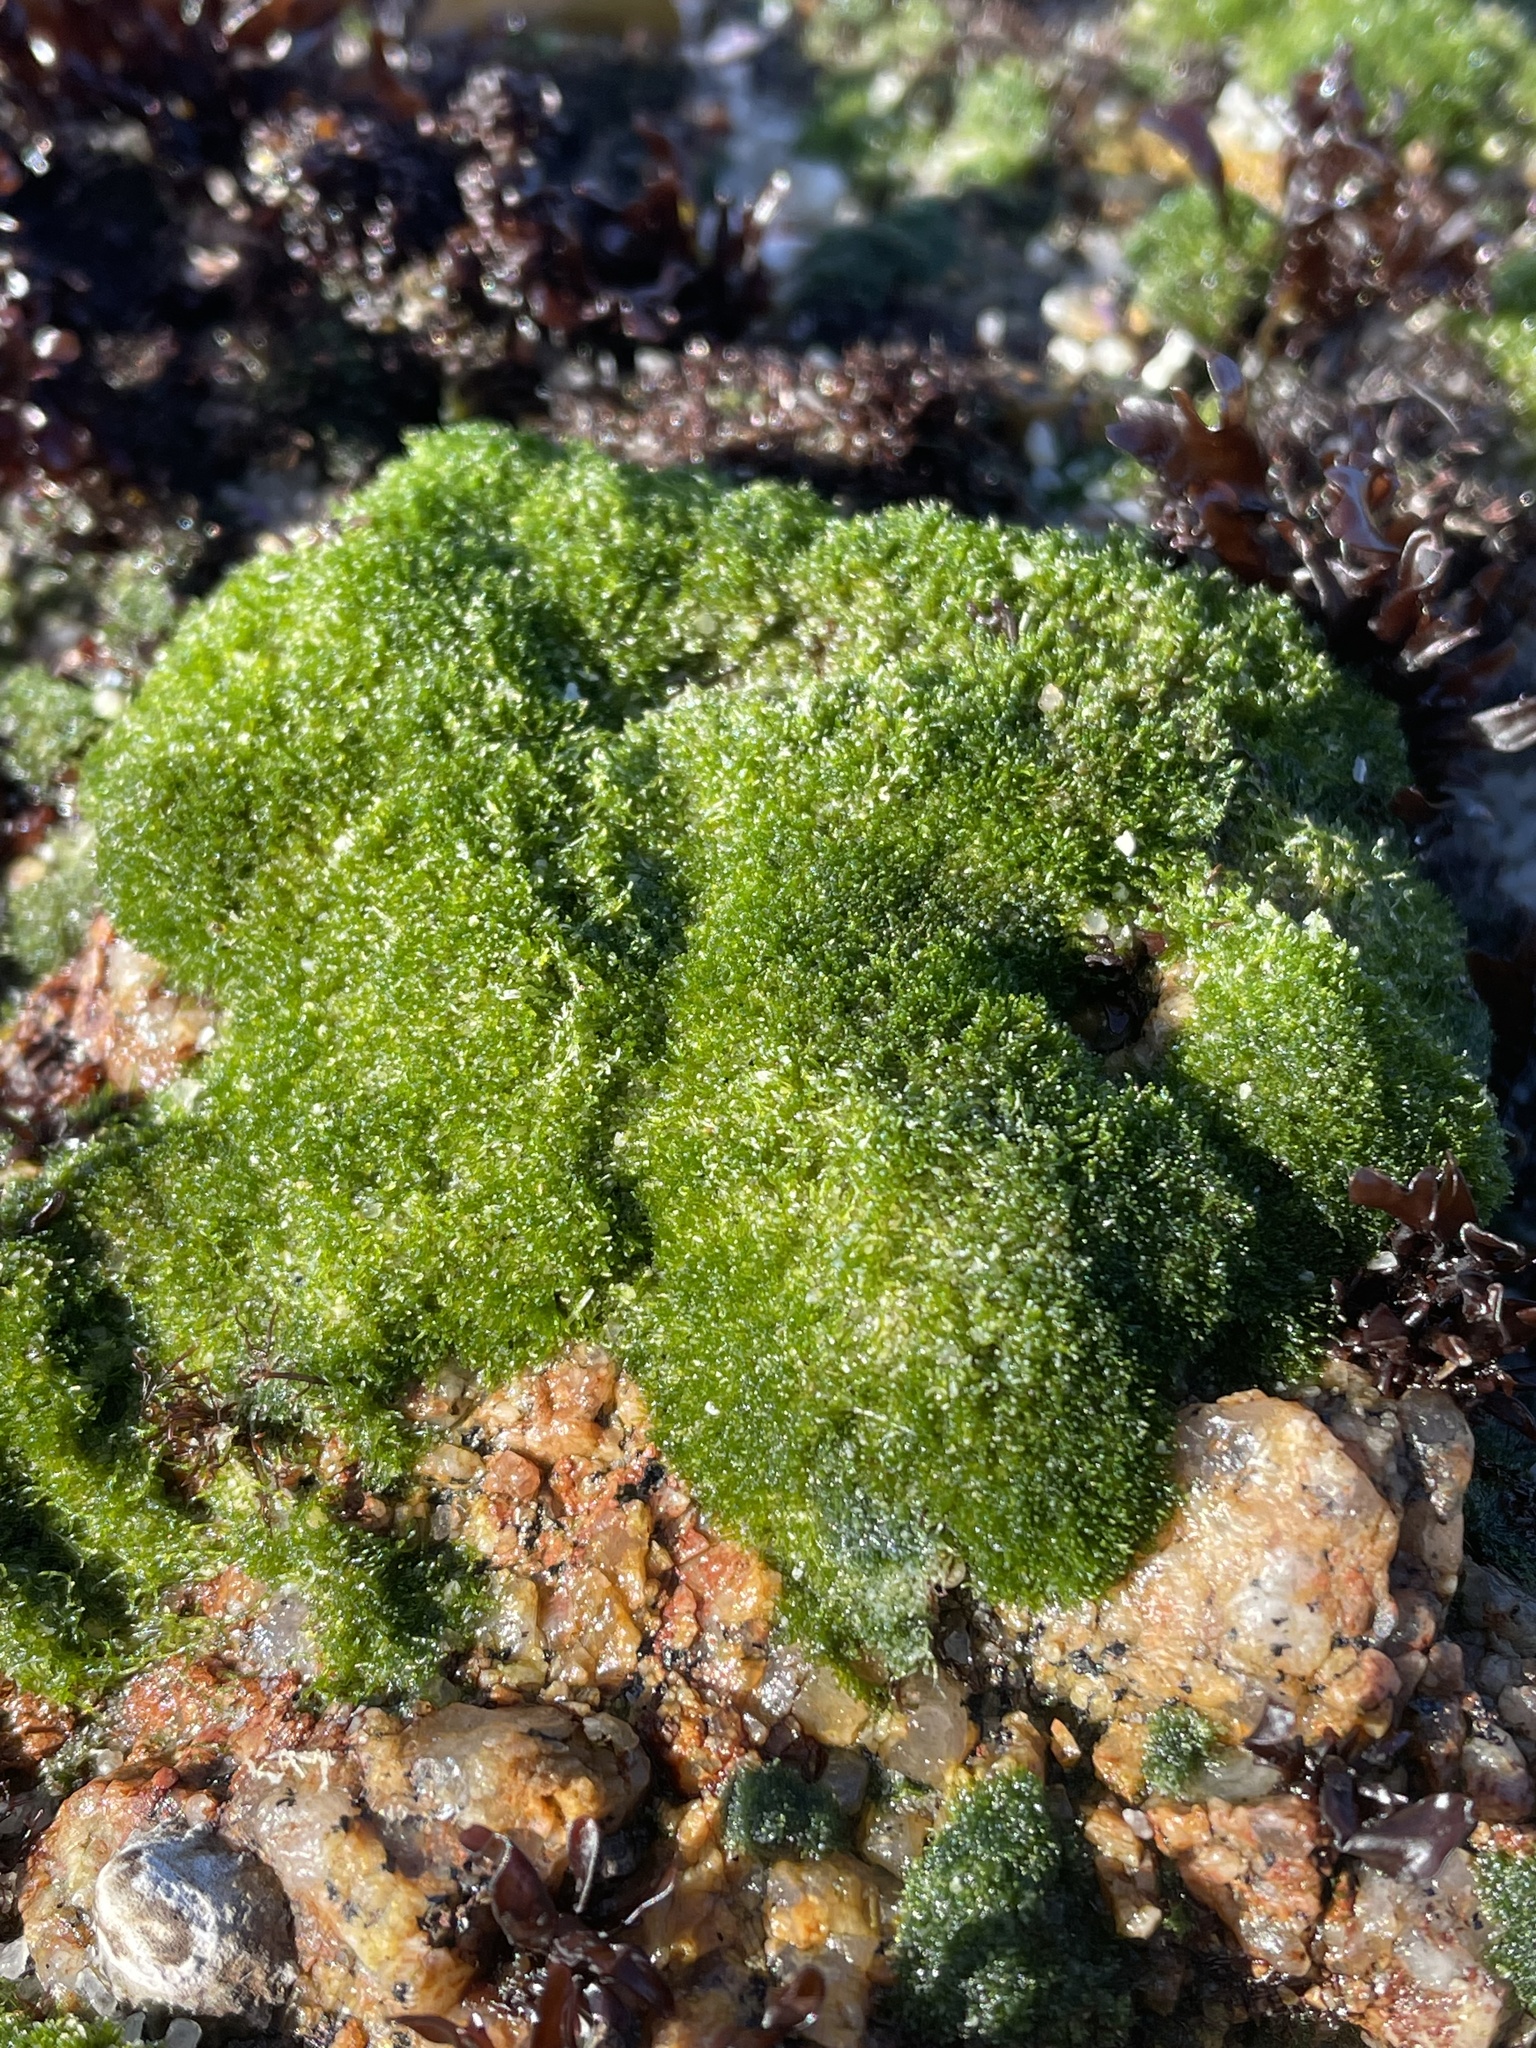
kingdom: Plantae
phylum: Chlorophyta
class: Ulvophyceae
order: Cladophorales
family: Cladophoraceae
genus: Cladophora
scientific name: Cladophora columbiana
